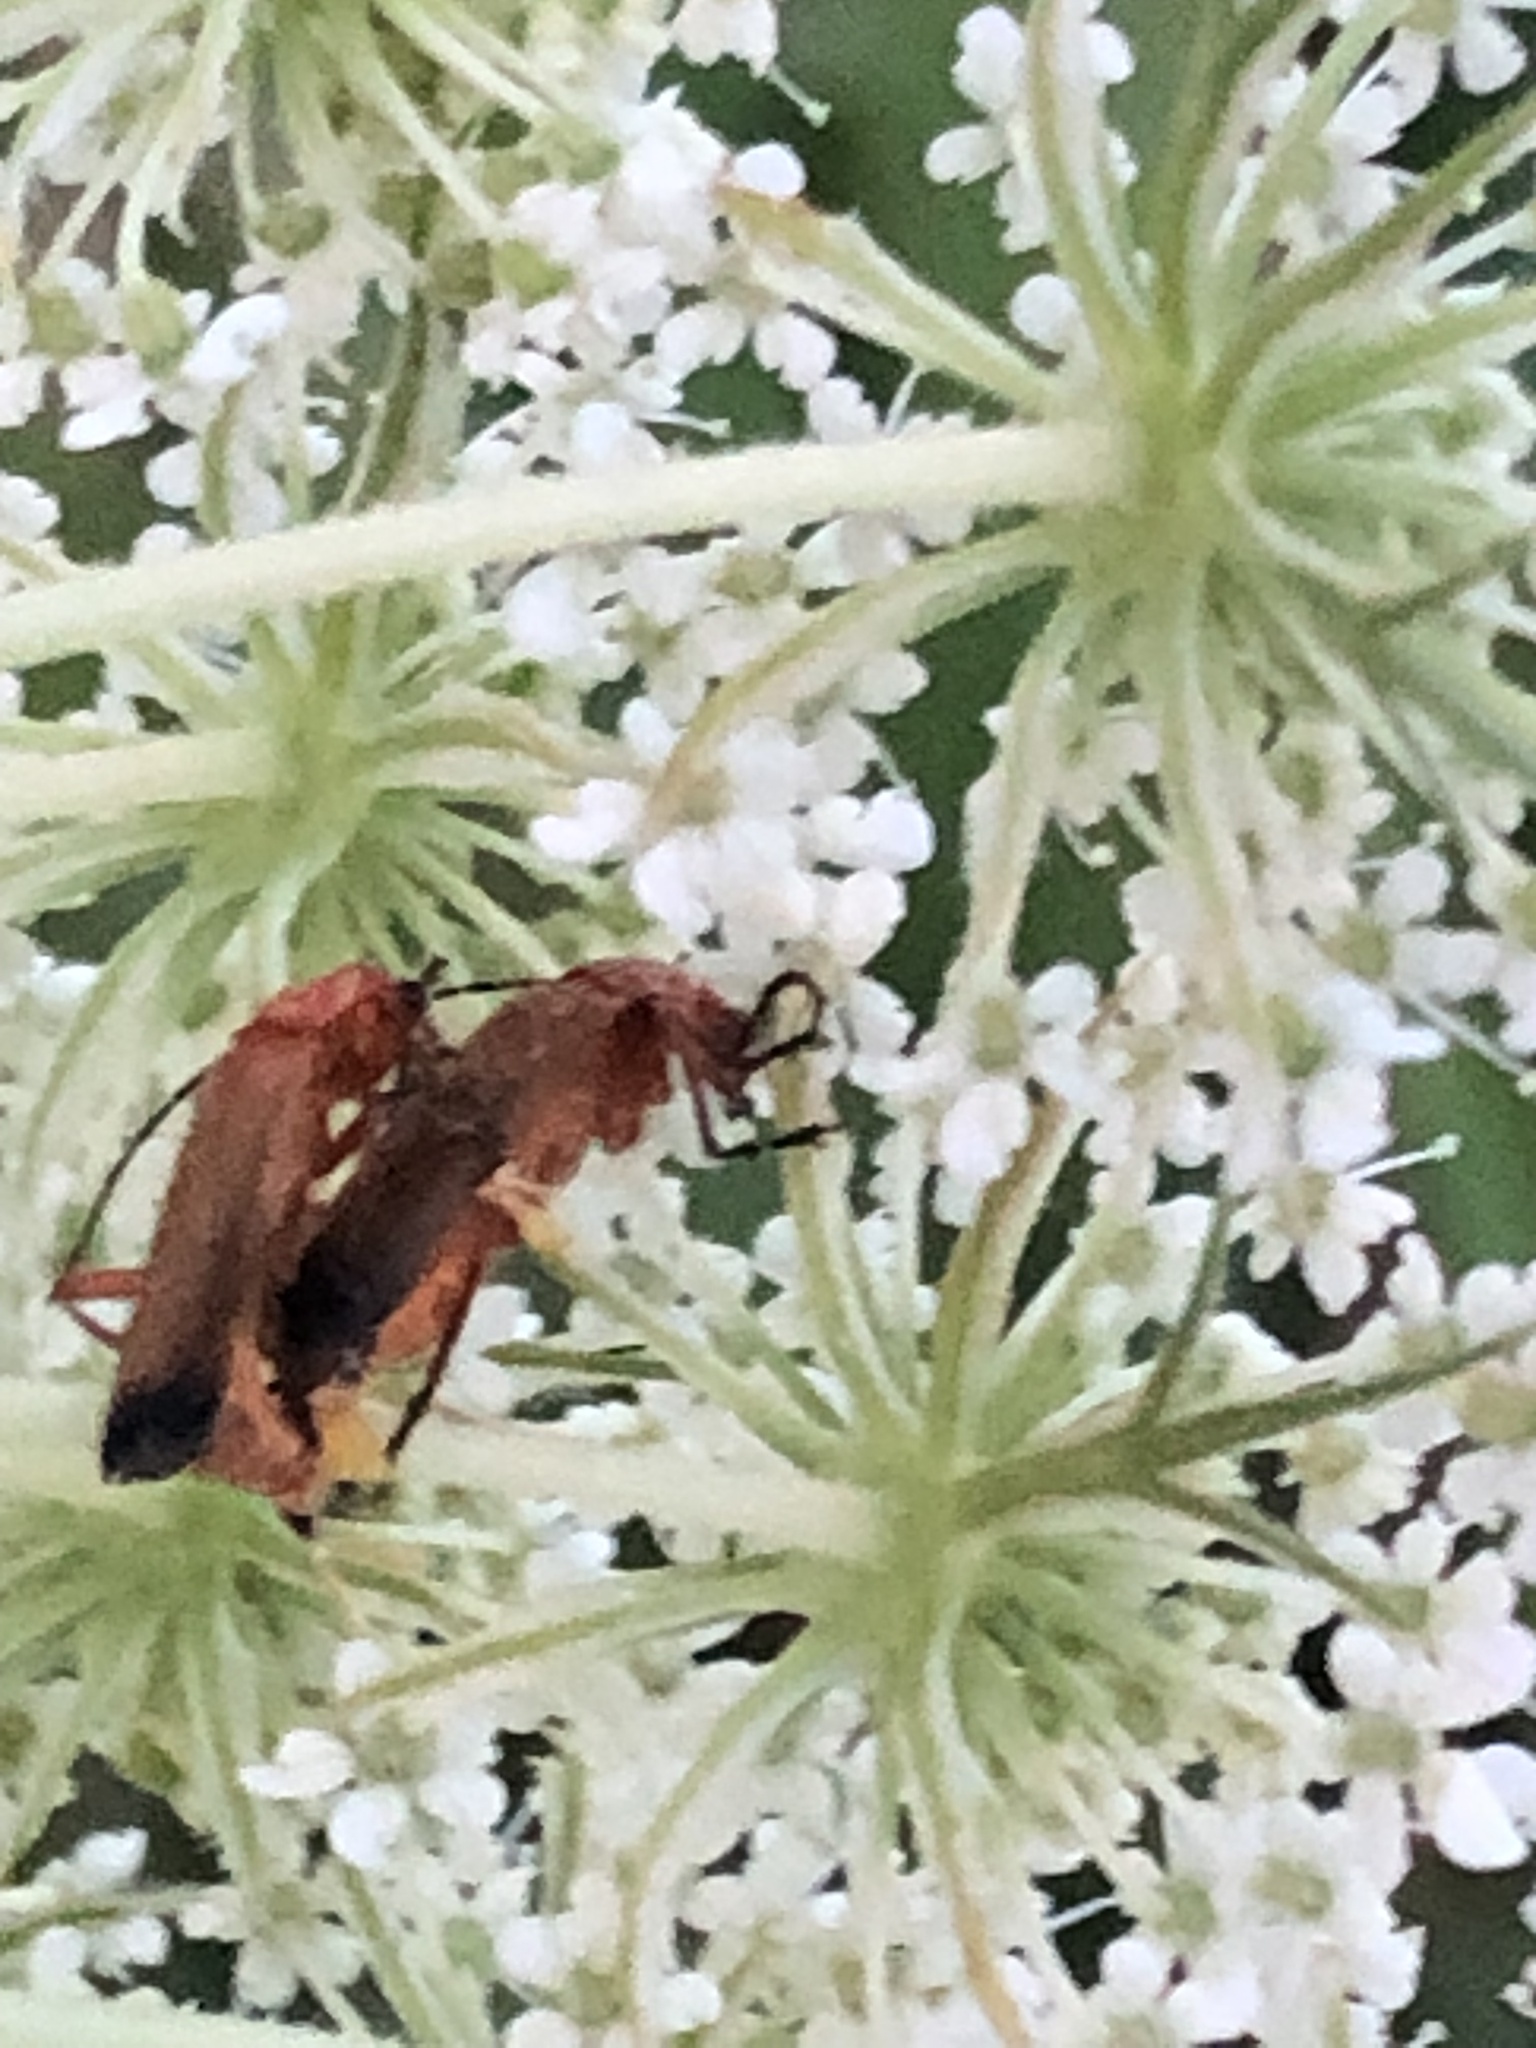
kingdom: Animalia
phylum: Arthropoda
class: Insecta
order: Coleoptera
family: Cantharidae
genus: Rhagonycha
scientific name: Rhagonycha fulva
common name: Common red soldier beetle
